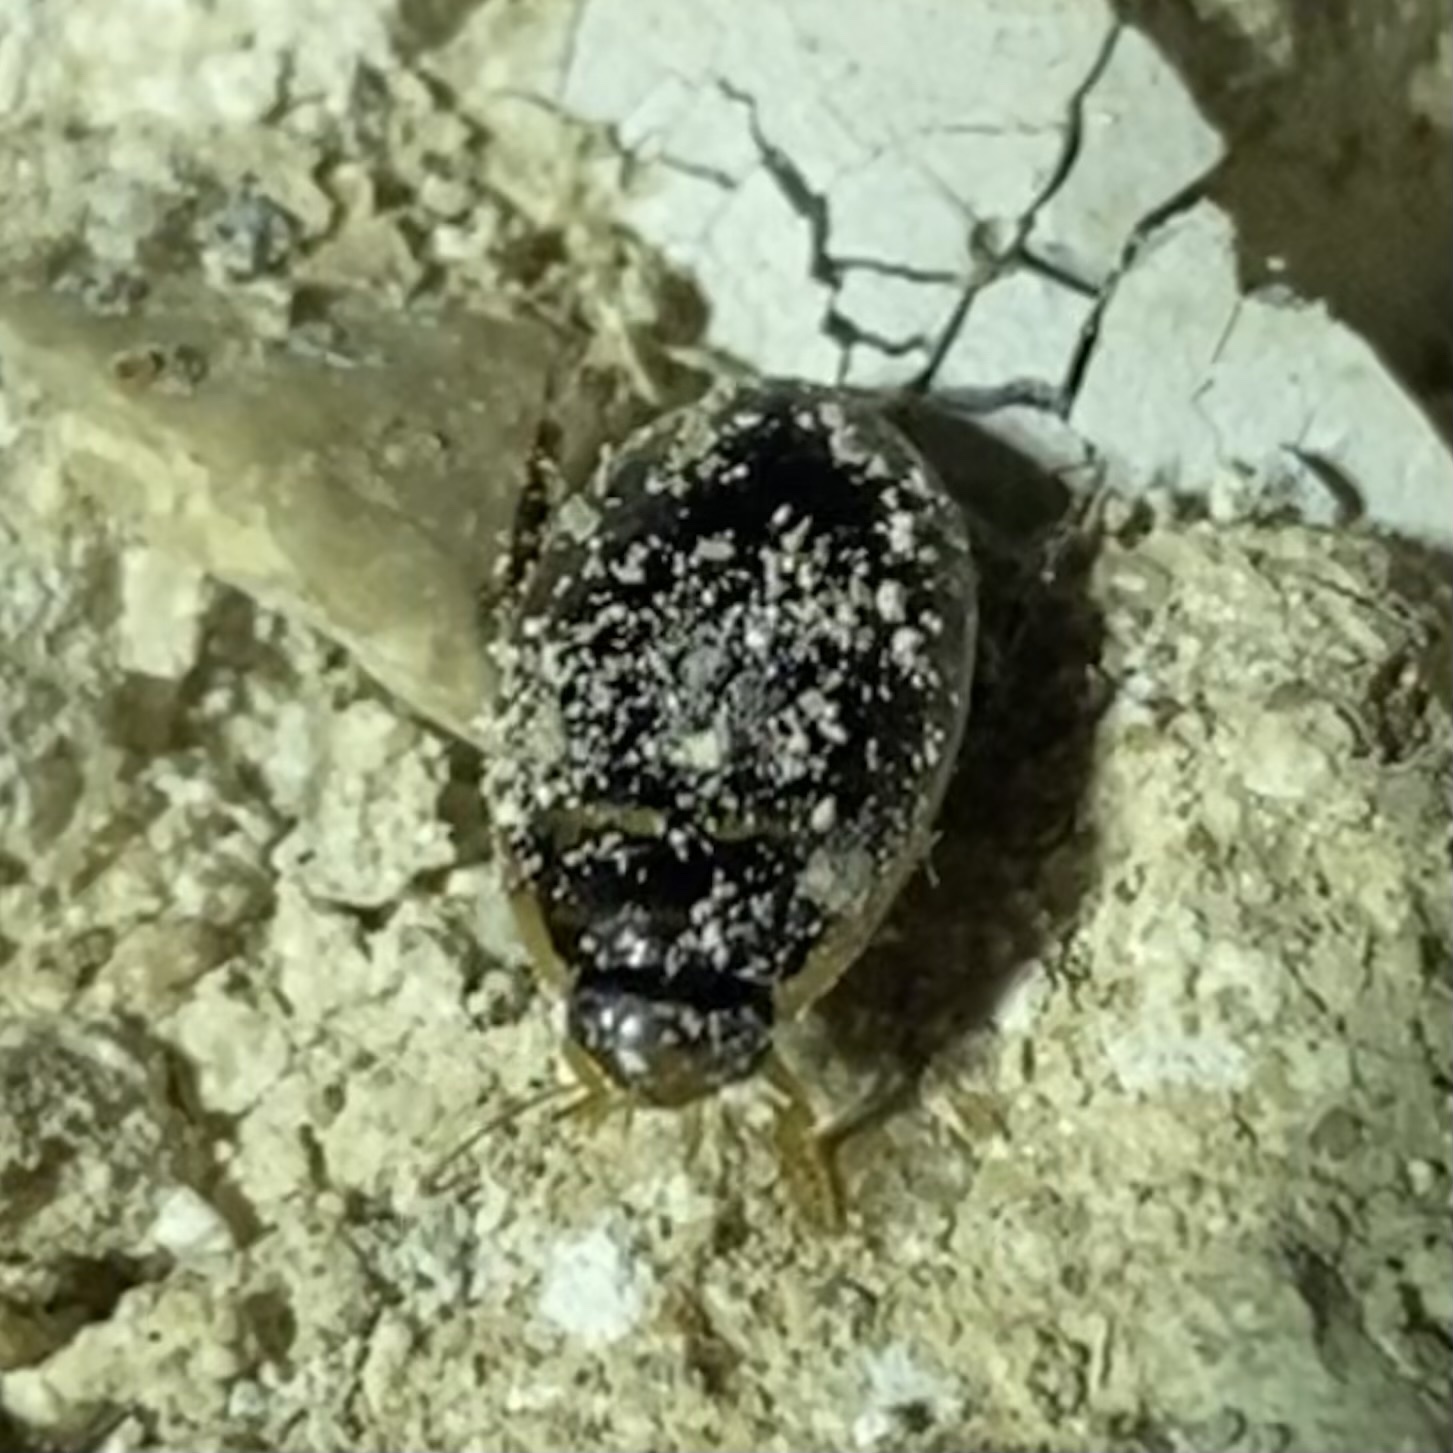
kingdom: Animalia
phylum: Arthropoda
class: Insecta
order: Coleoptera
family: Dytiscidae
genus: Thermonectus
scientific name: Thermonectus basillaris
